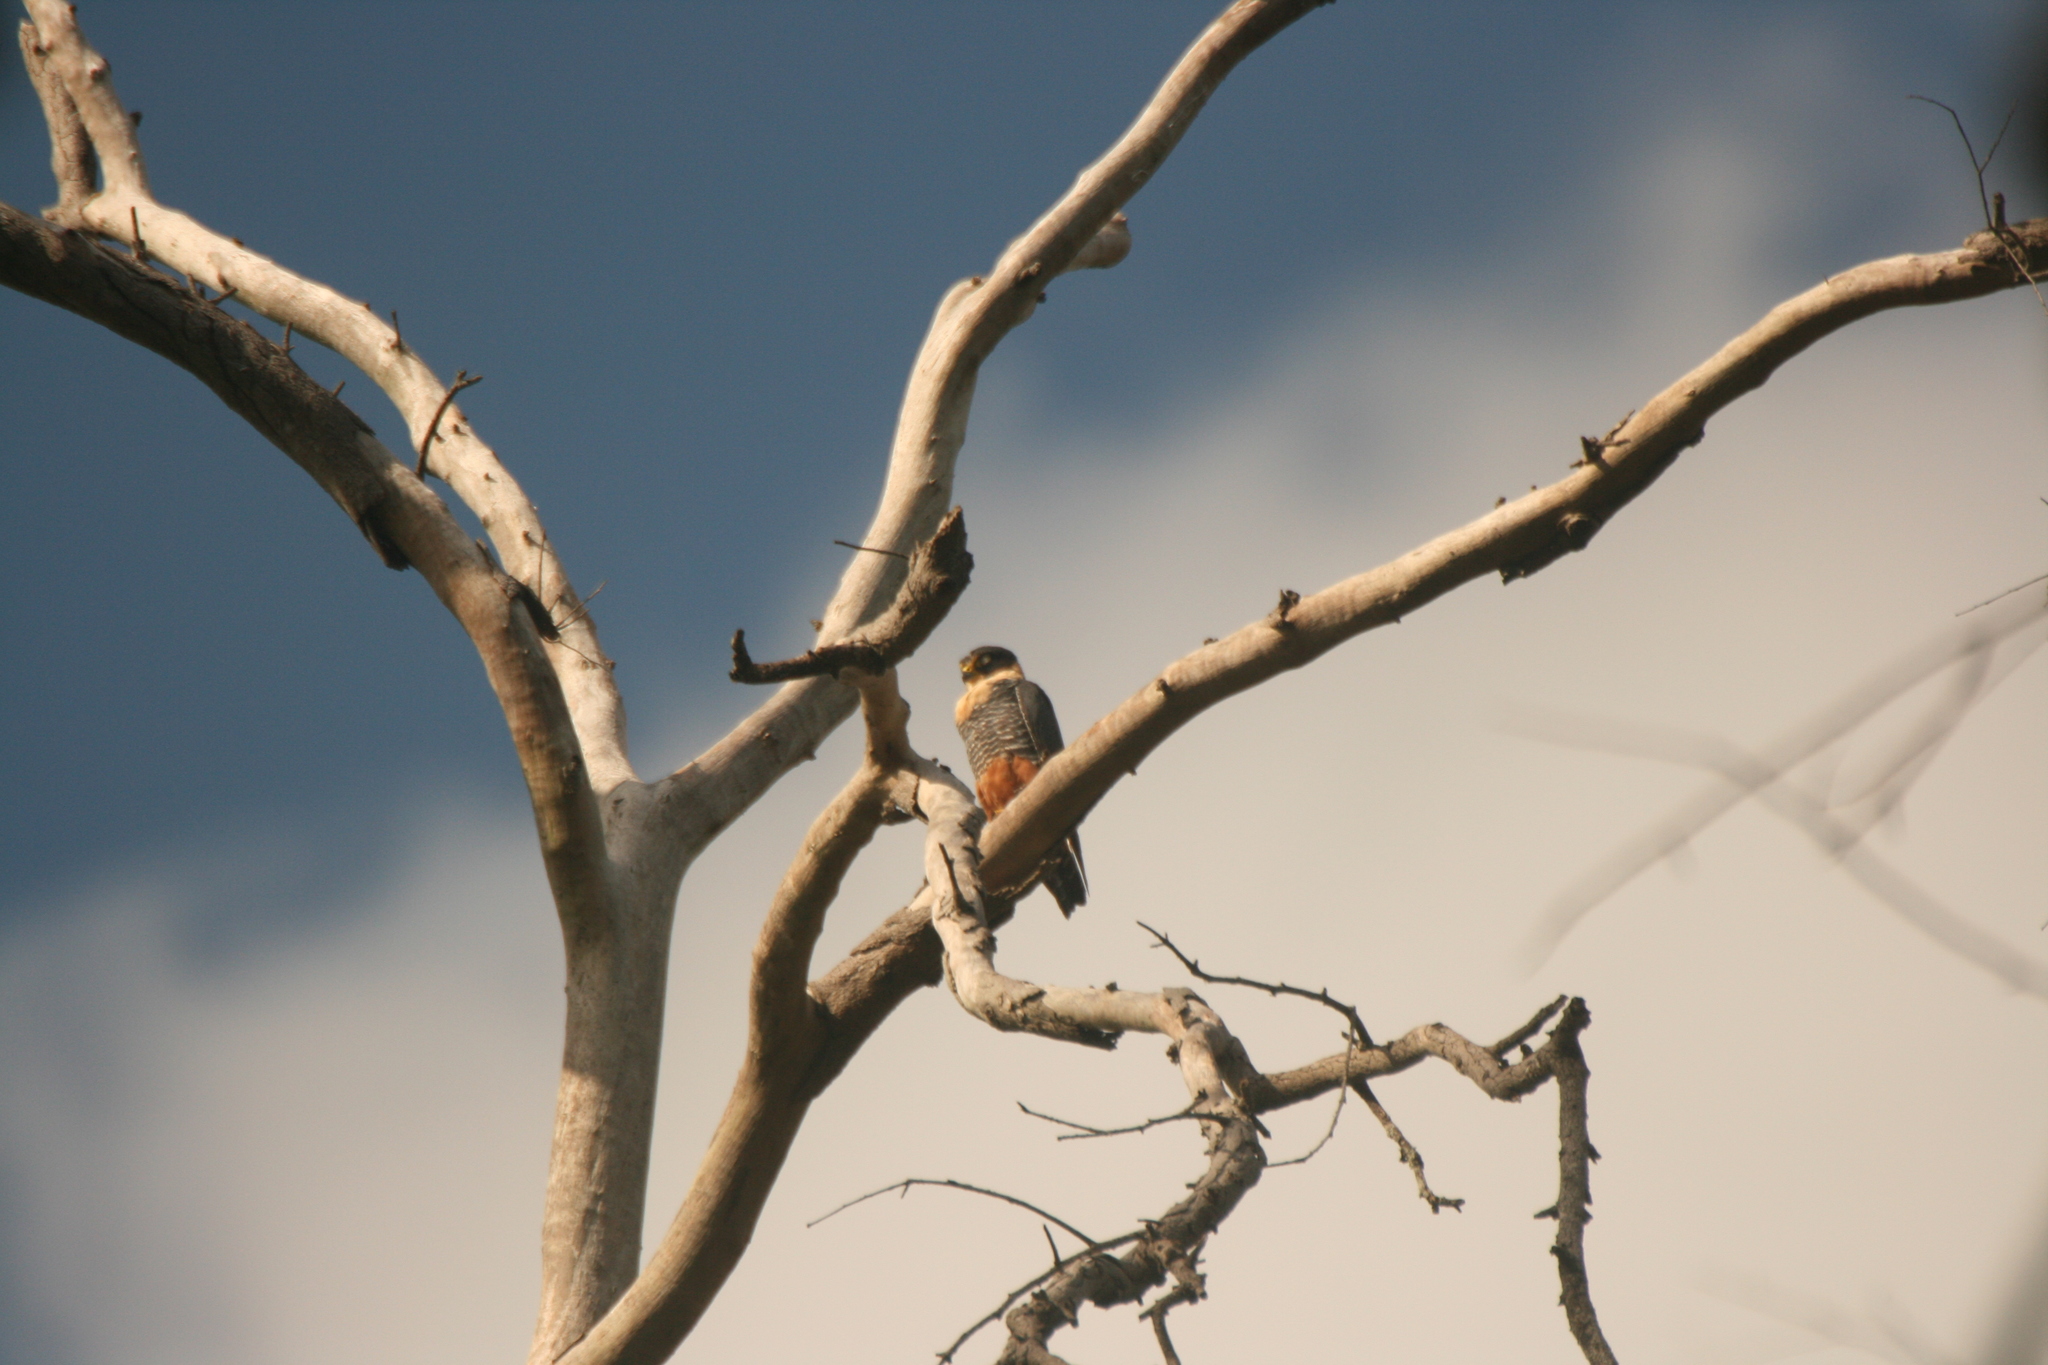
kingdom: Animalia
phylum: Chordata
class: Aves
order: Falconiformes
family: Falconidae
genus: Falco
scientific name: Falco rufigularis
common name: Bat falcon
